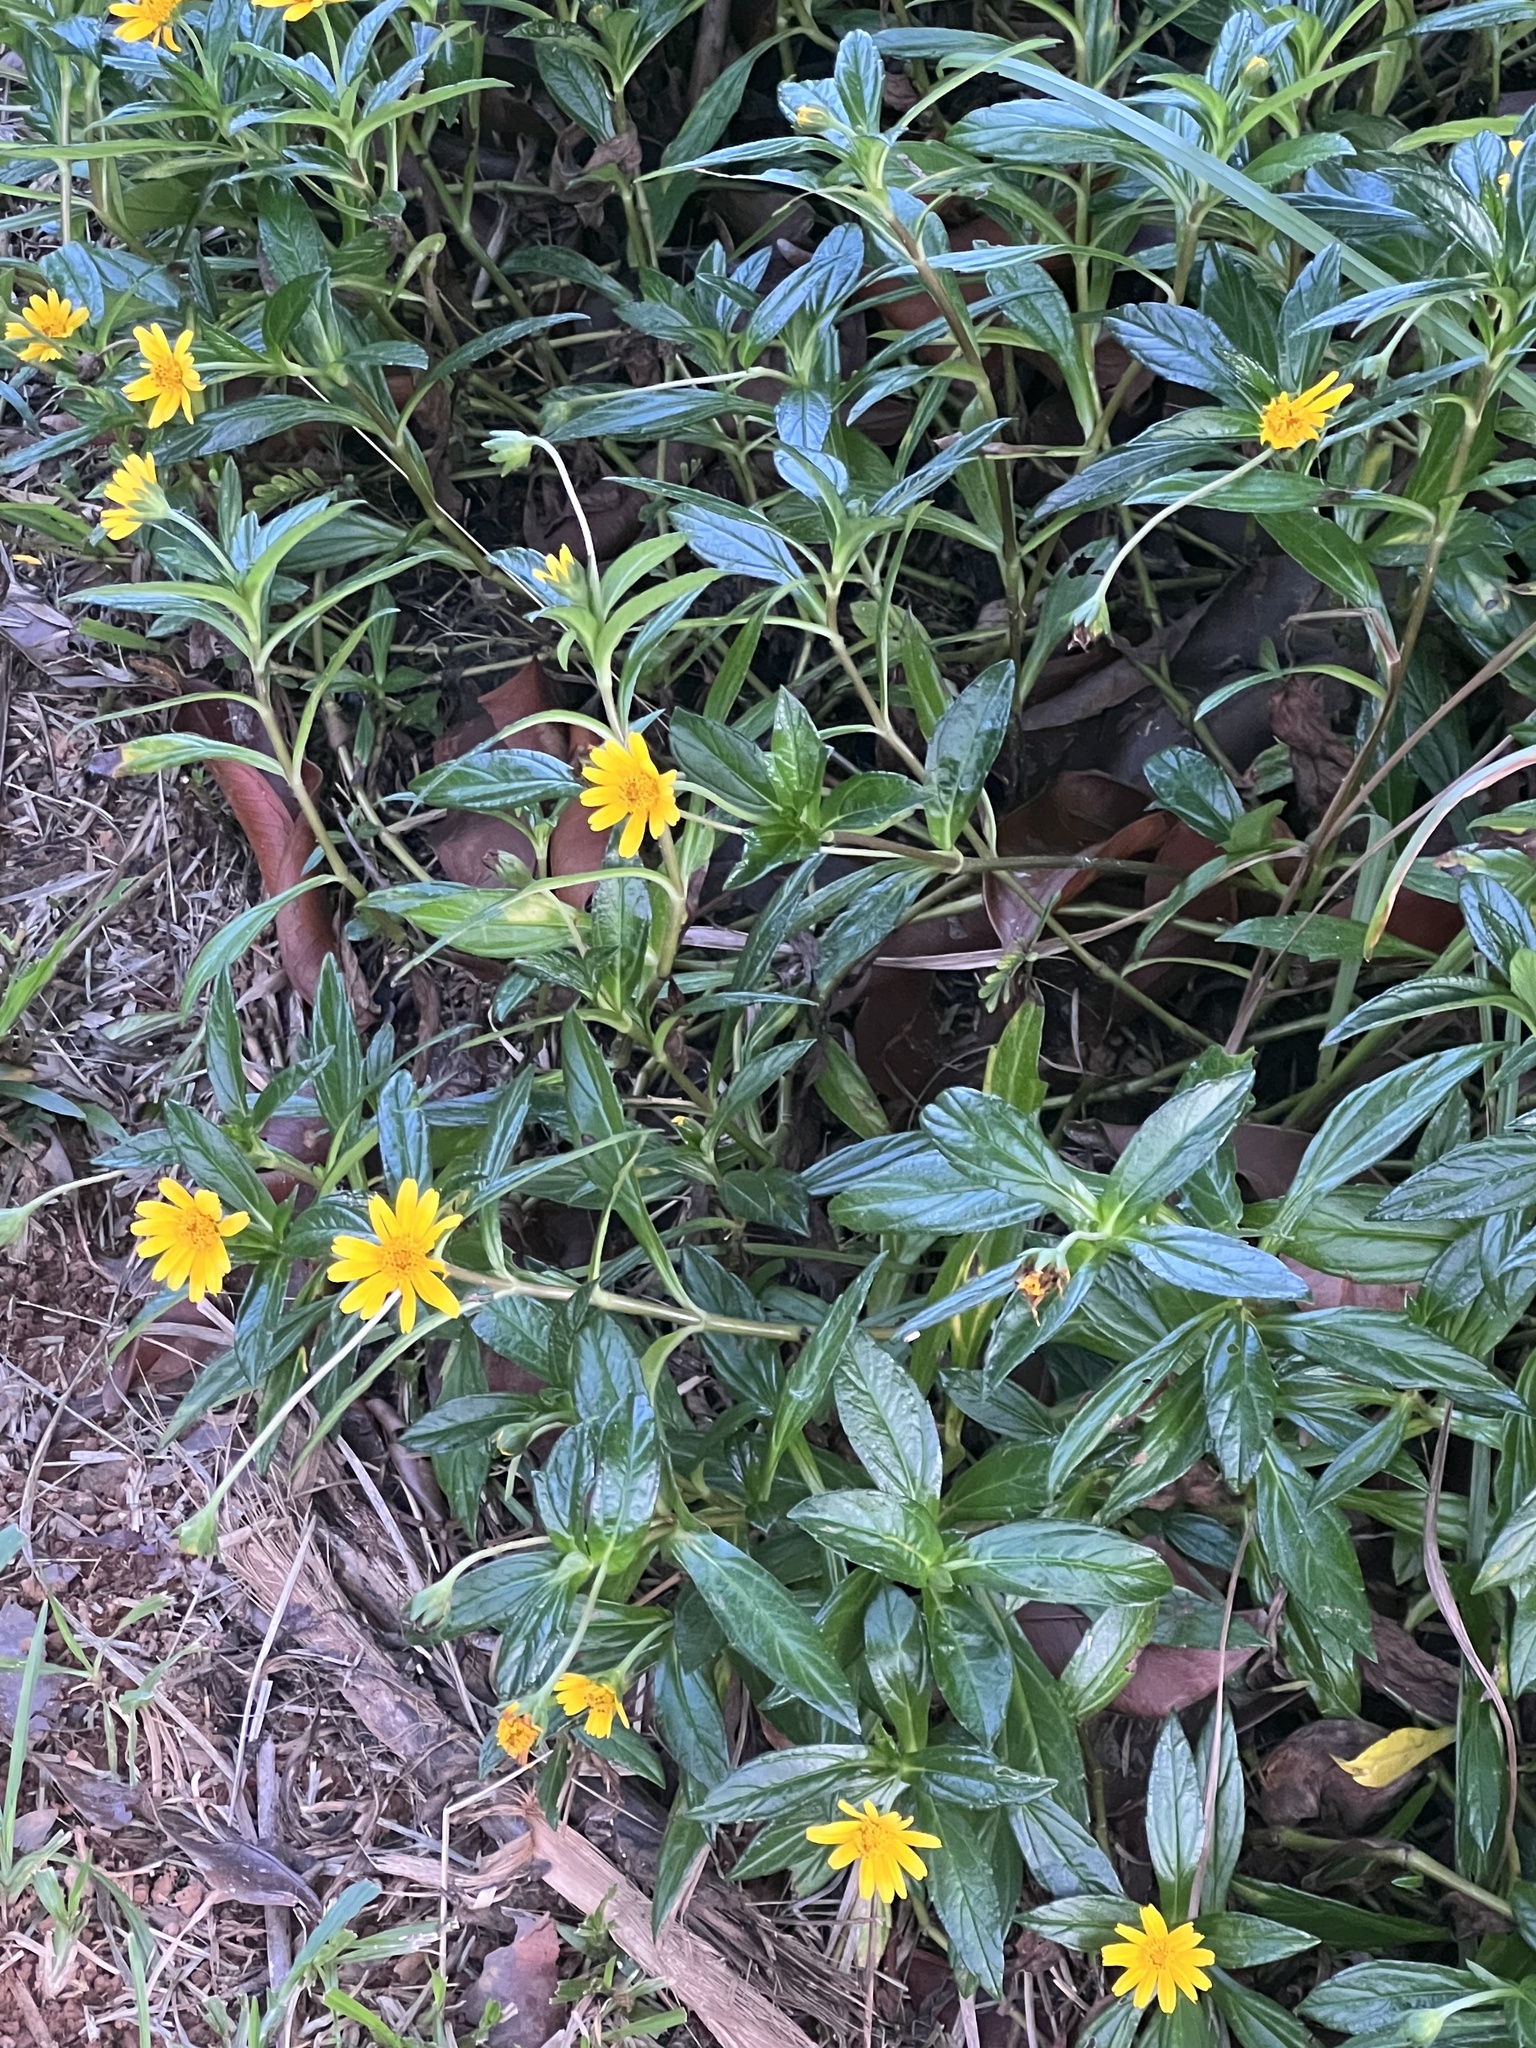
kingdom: Plantae
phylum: Tracheophyta
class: Magnoliopsida
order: Asterales
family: Asteraceae
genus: Sphagneticola
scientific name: Sphagneticola trilobata
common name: Bay biscayne creeping-oxeye
